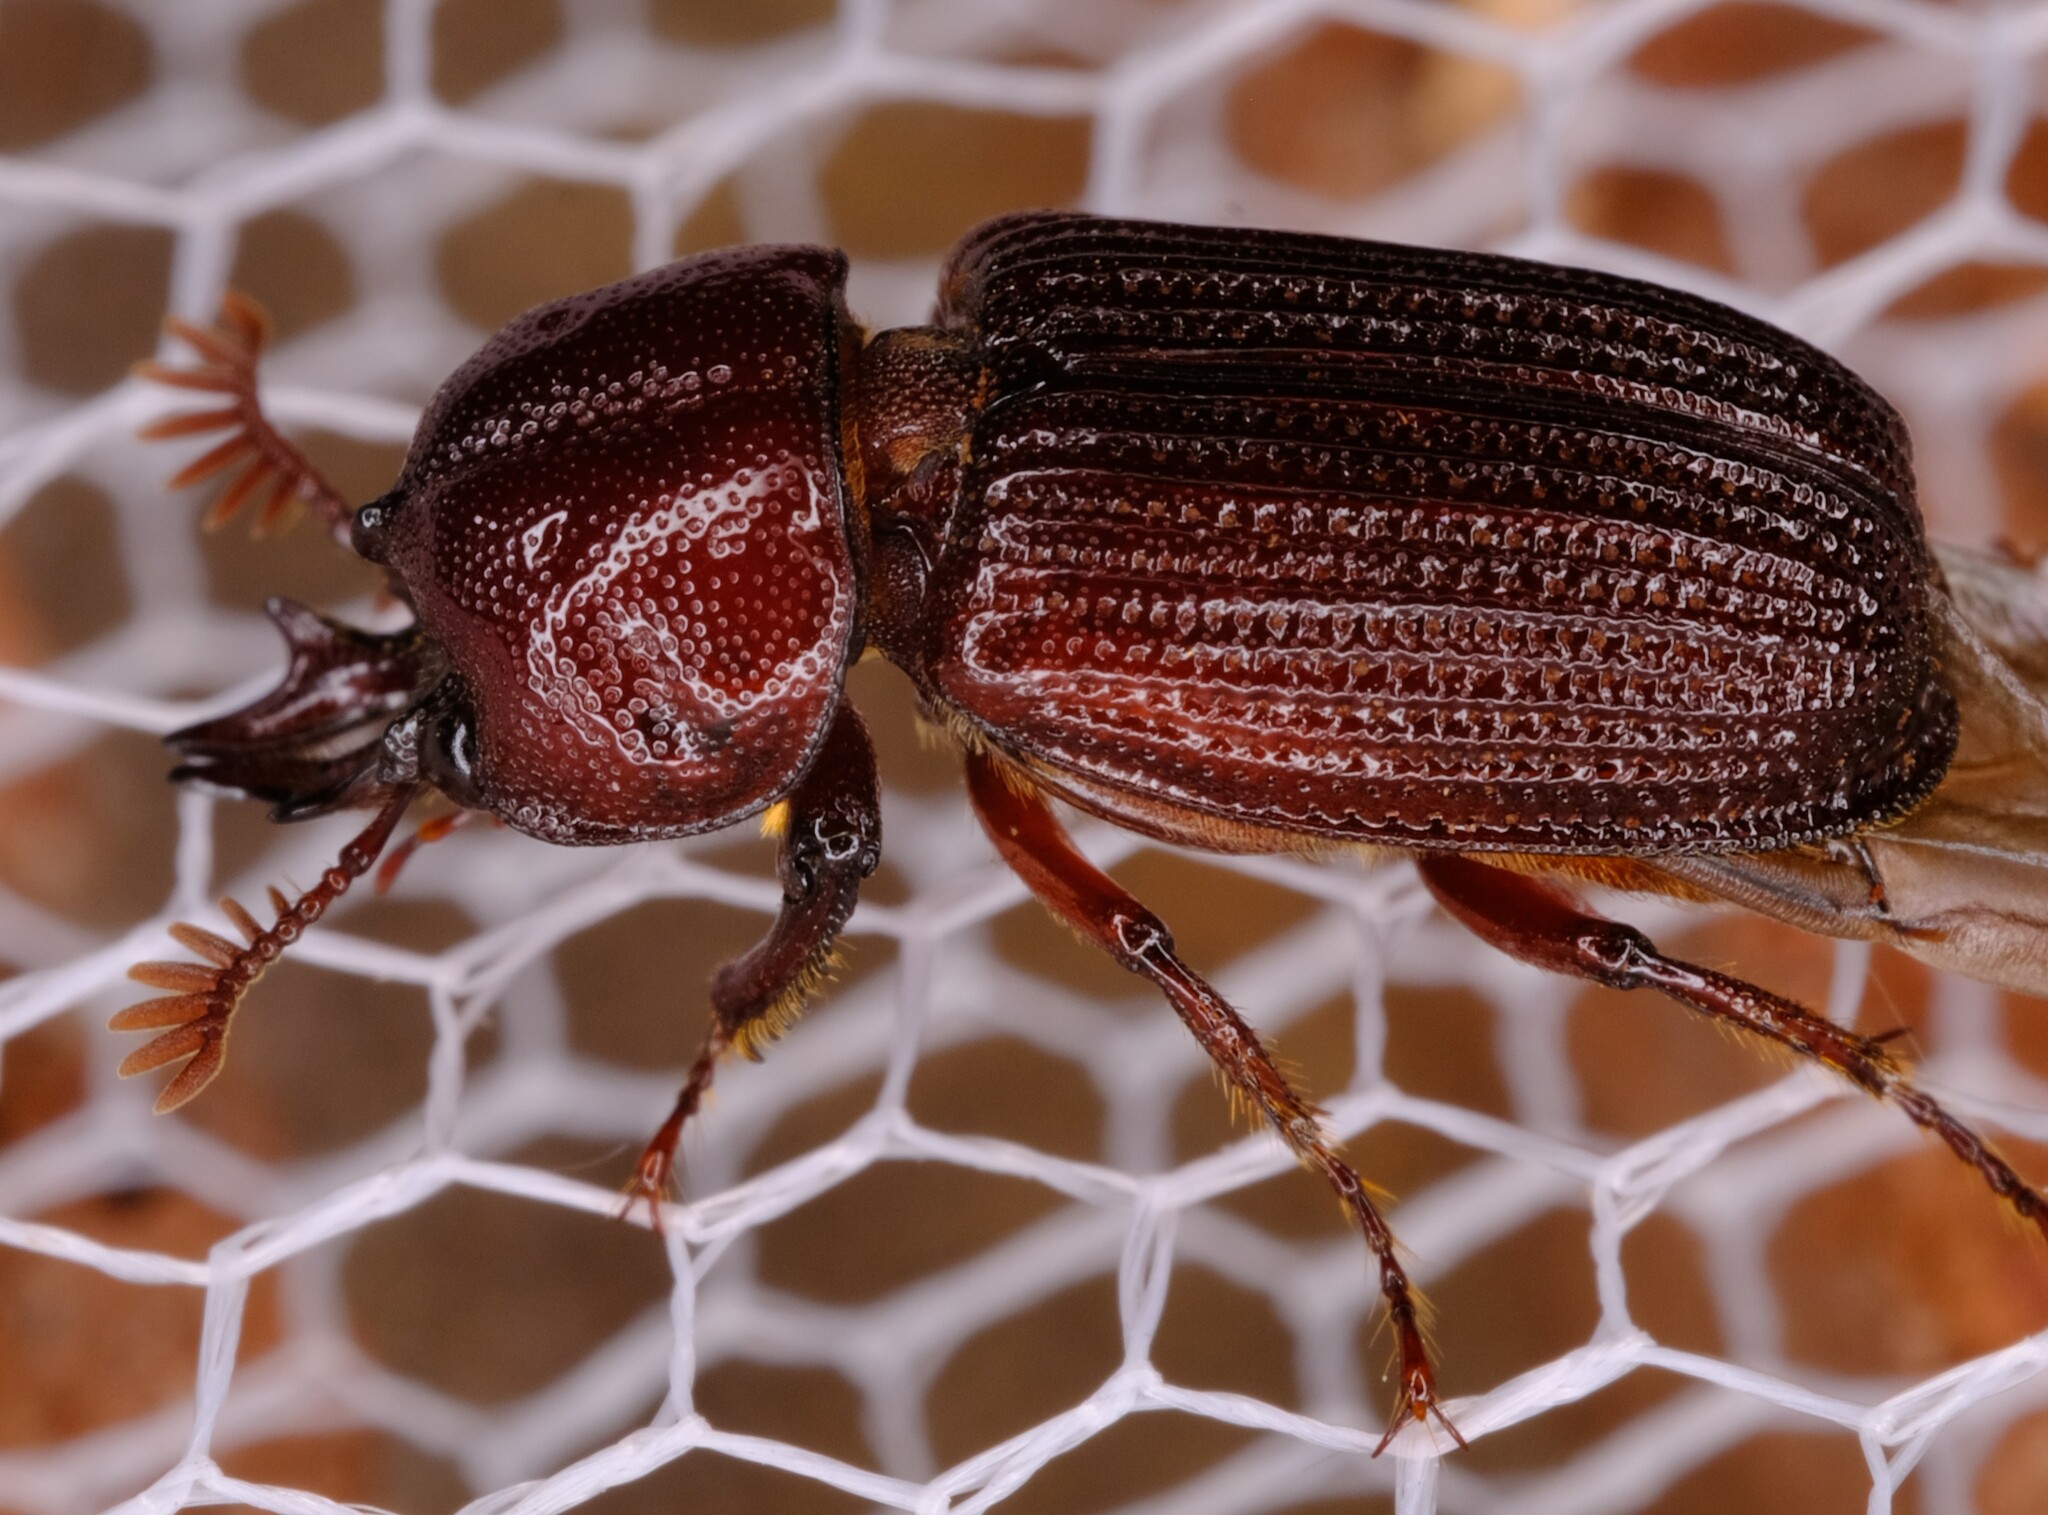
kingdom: Animalia
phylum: Arthropoda
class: Insecta
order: Coleoptera
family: Lucanidae
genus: Syndesus
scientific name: Syndesus cornutus
